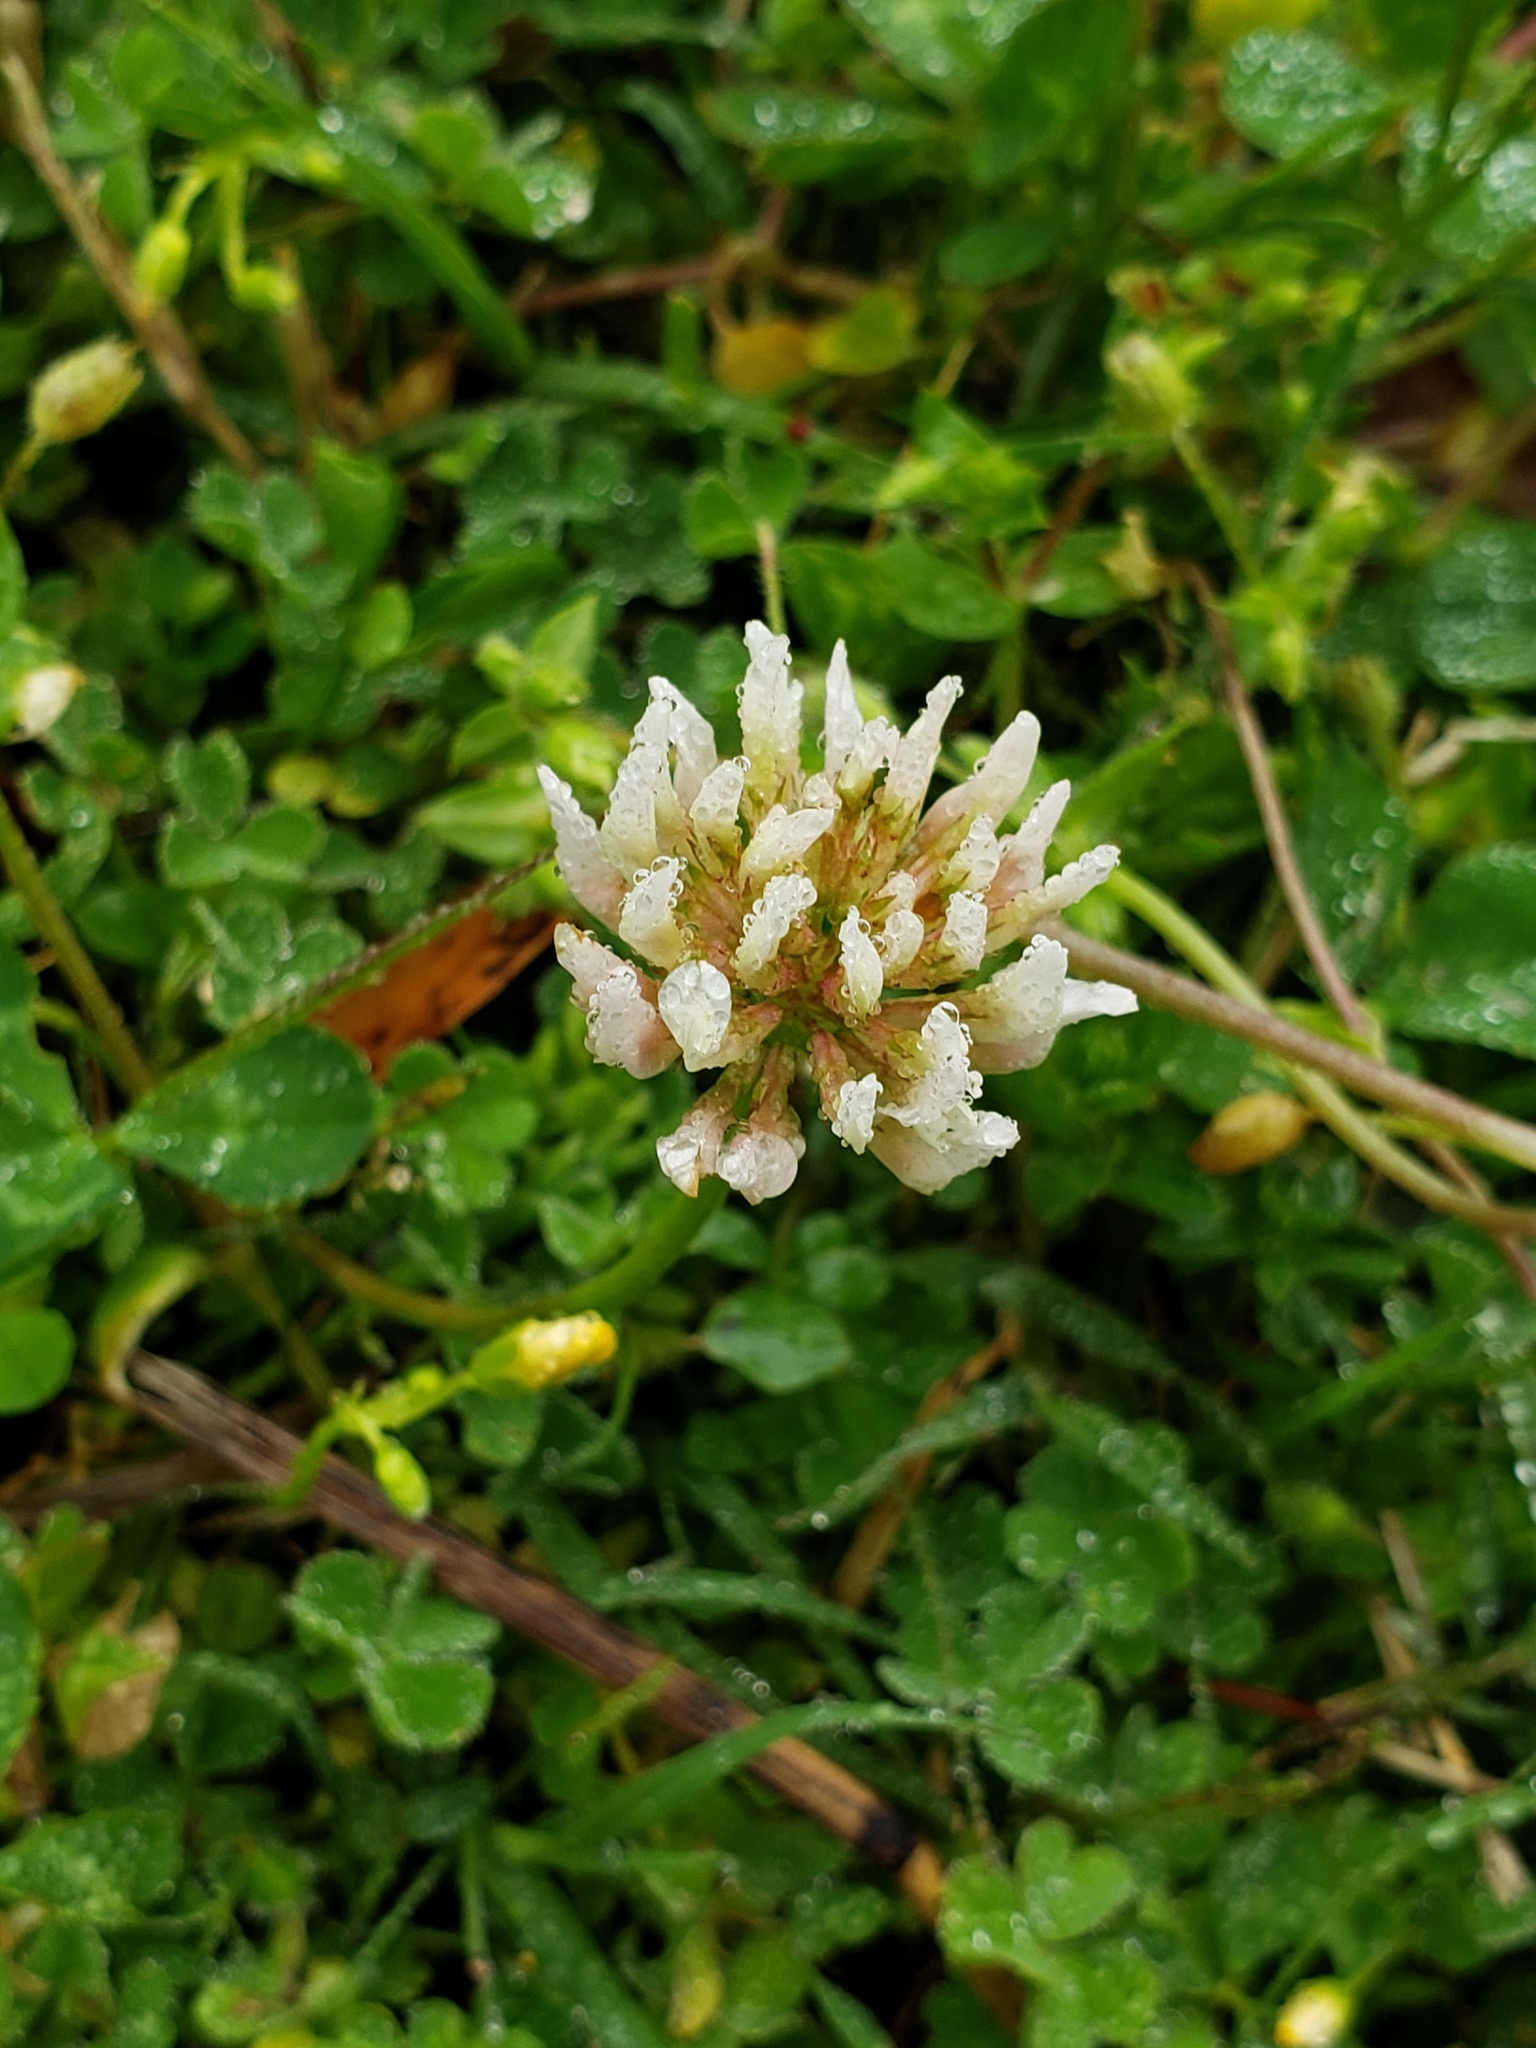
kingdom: Plantae
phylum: Tracheophyta
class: Magnoliopsida
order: Fabales
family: Fabaceae
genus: Trifolium
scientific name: Trifolium repens
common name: White clover
